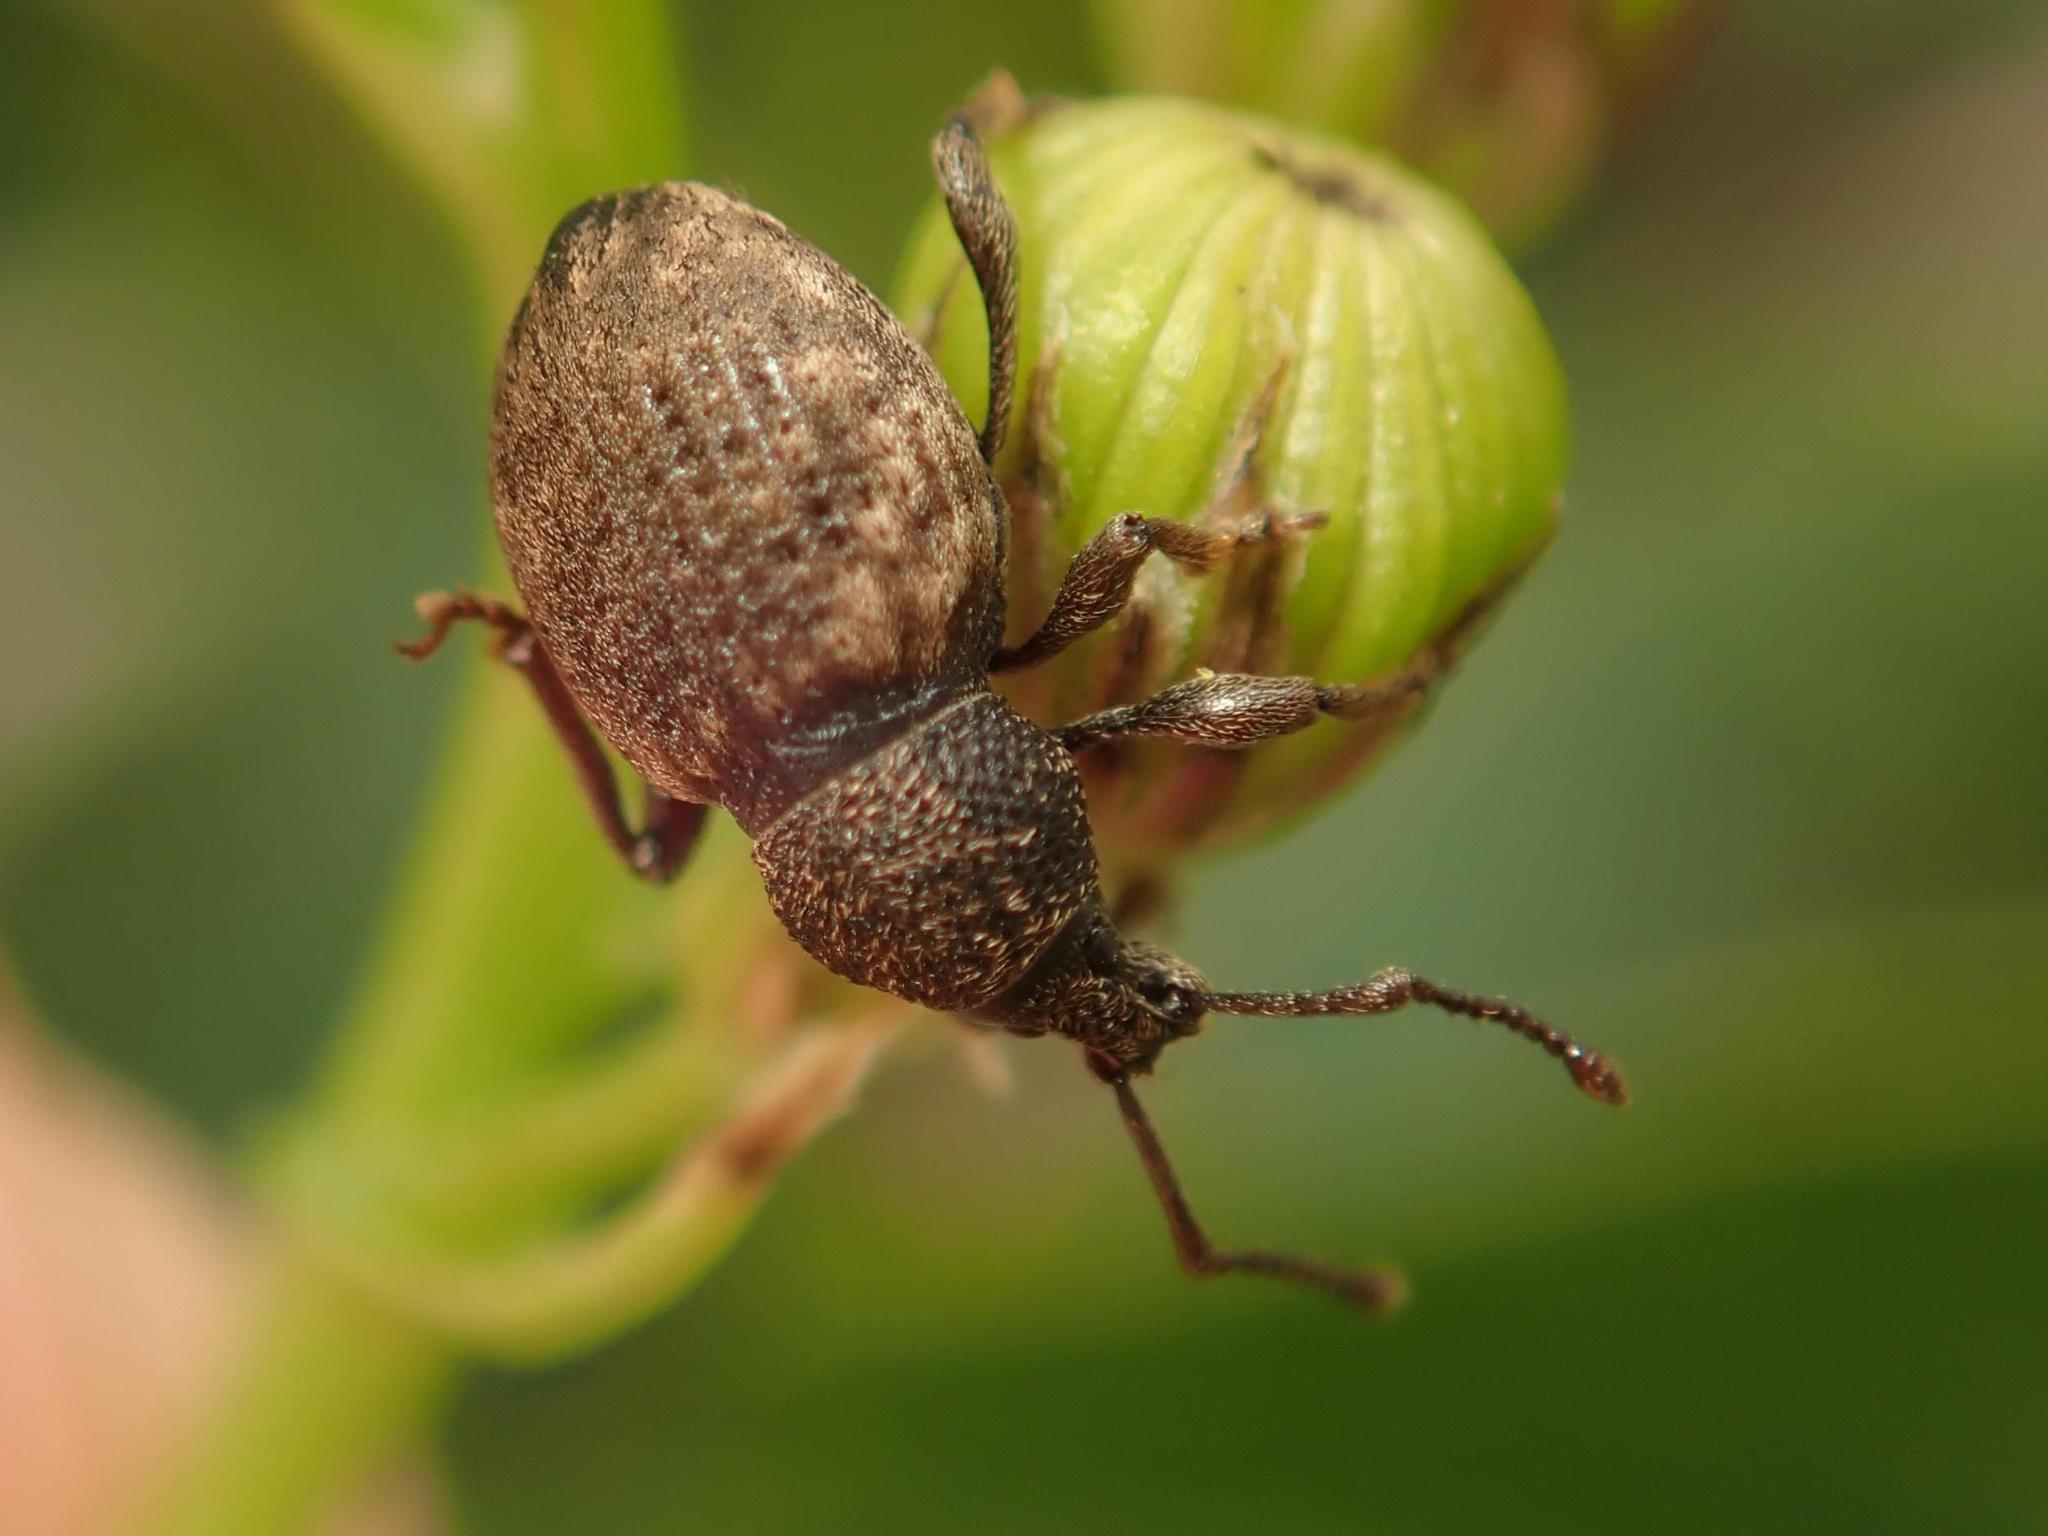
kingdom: Animalia
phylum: Arthropoda
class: Insecta
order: Coleoptera
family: Curculionidae
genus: Otiorhynchus
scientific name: Otiorhynchus raucus
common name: Weevil
